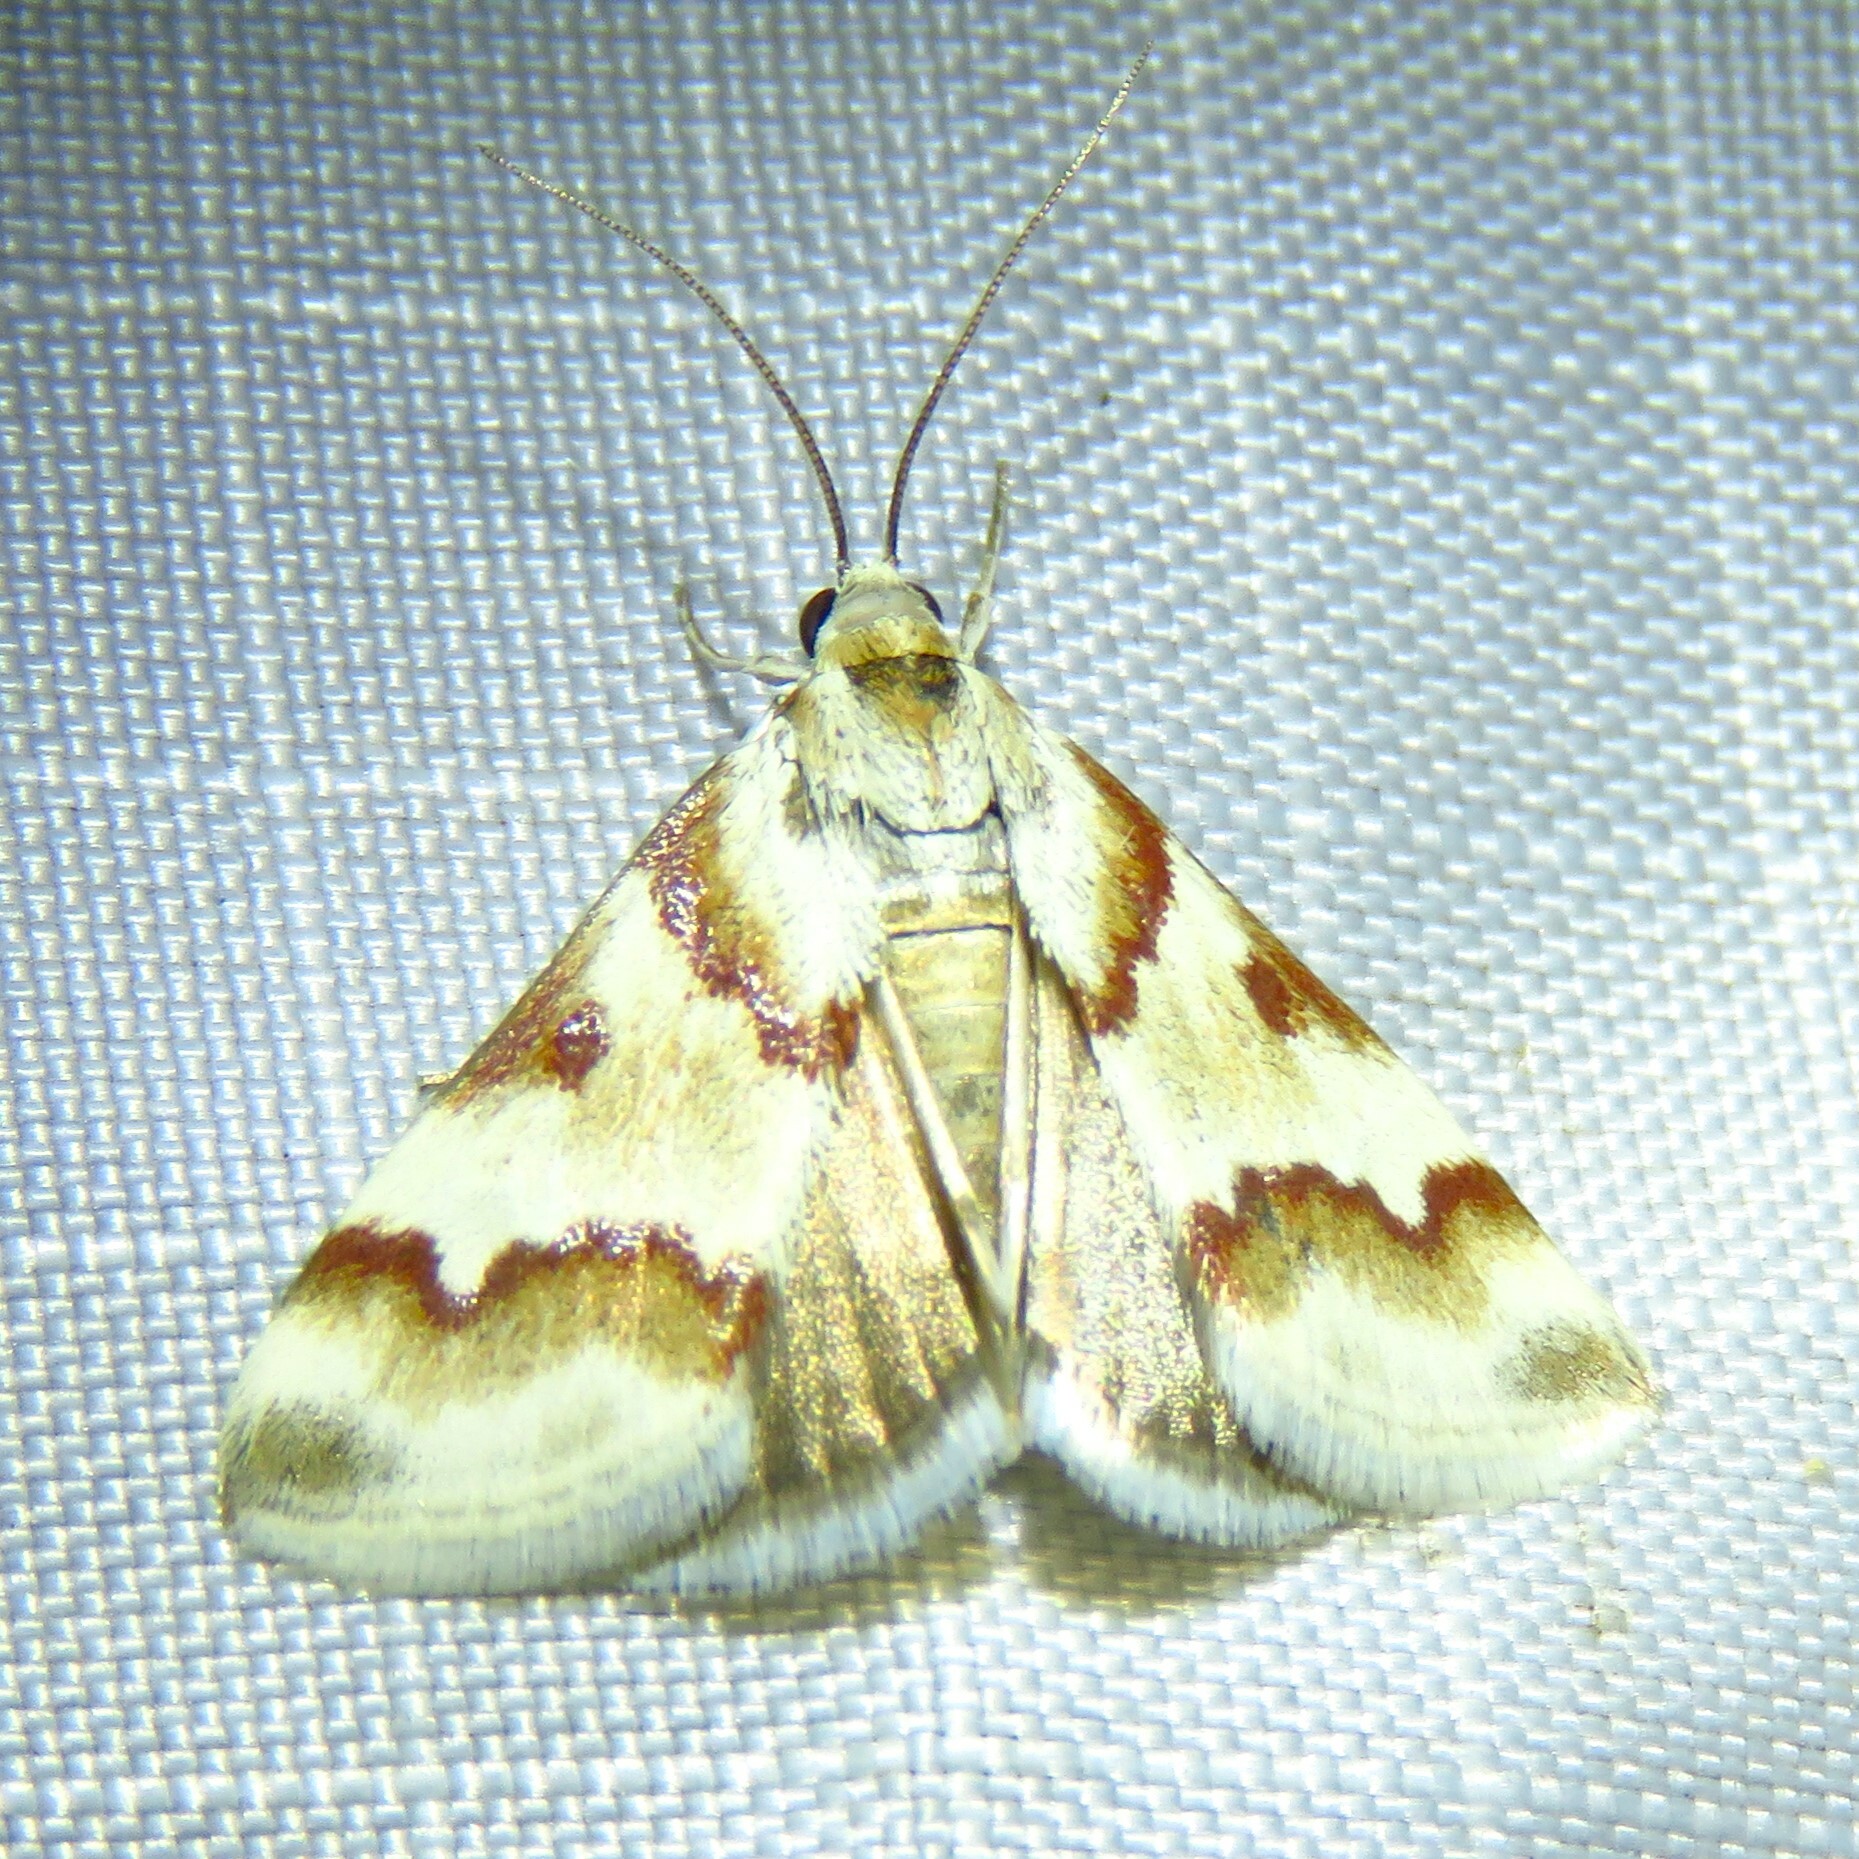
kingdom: Animalia
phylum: Arthropoda
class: Insecta
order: Lepidoptera
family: Crambidae
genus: Noctuelia
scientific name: Noctuelia Mimoschinia rufofascialis
